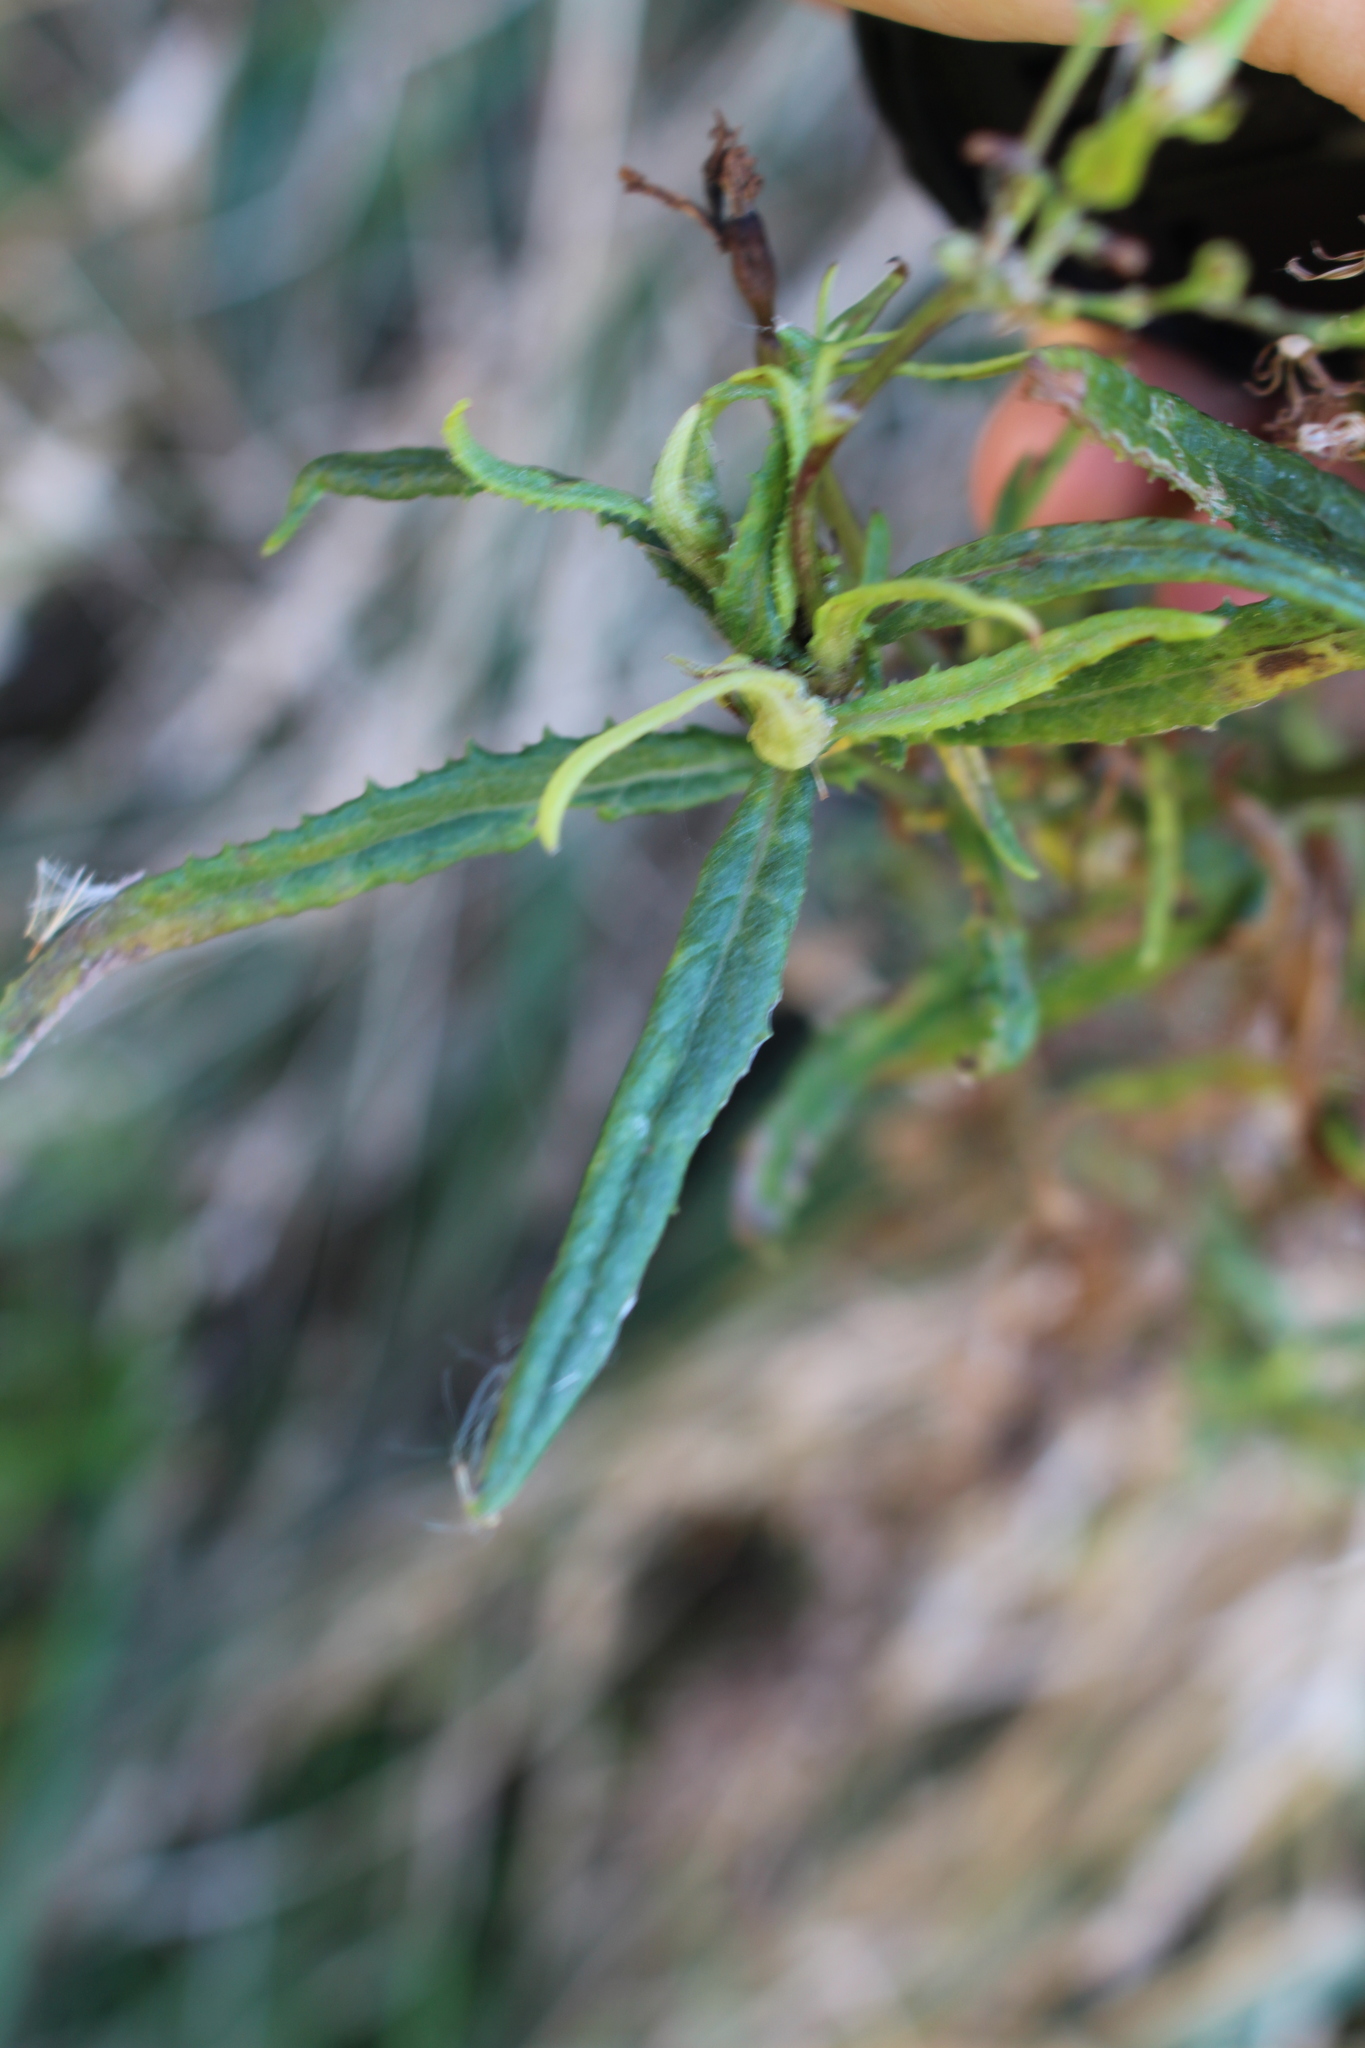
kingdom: Plantae
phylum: Tracheophyta
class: Magnoliopsida
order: Asterales
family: Asteraceae
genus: Senecio
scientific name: Senecio minimus
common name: Toothed fireweed
